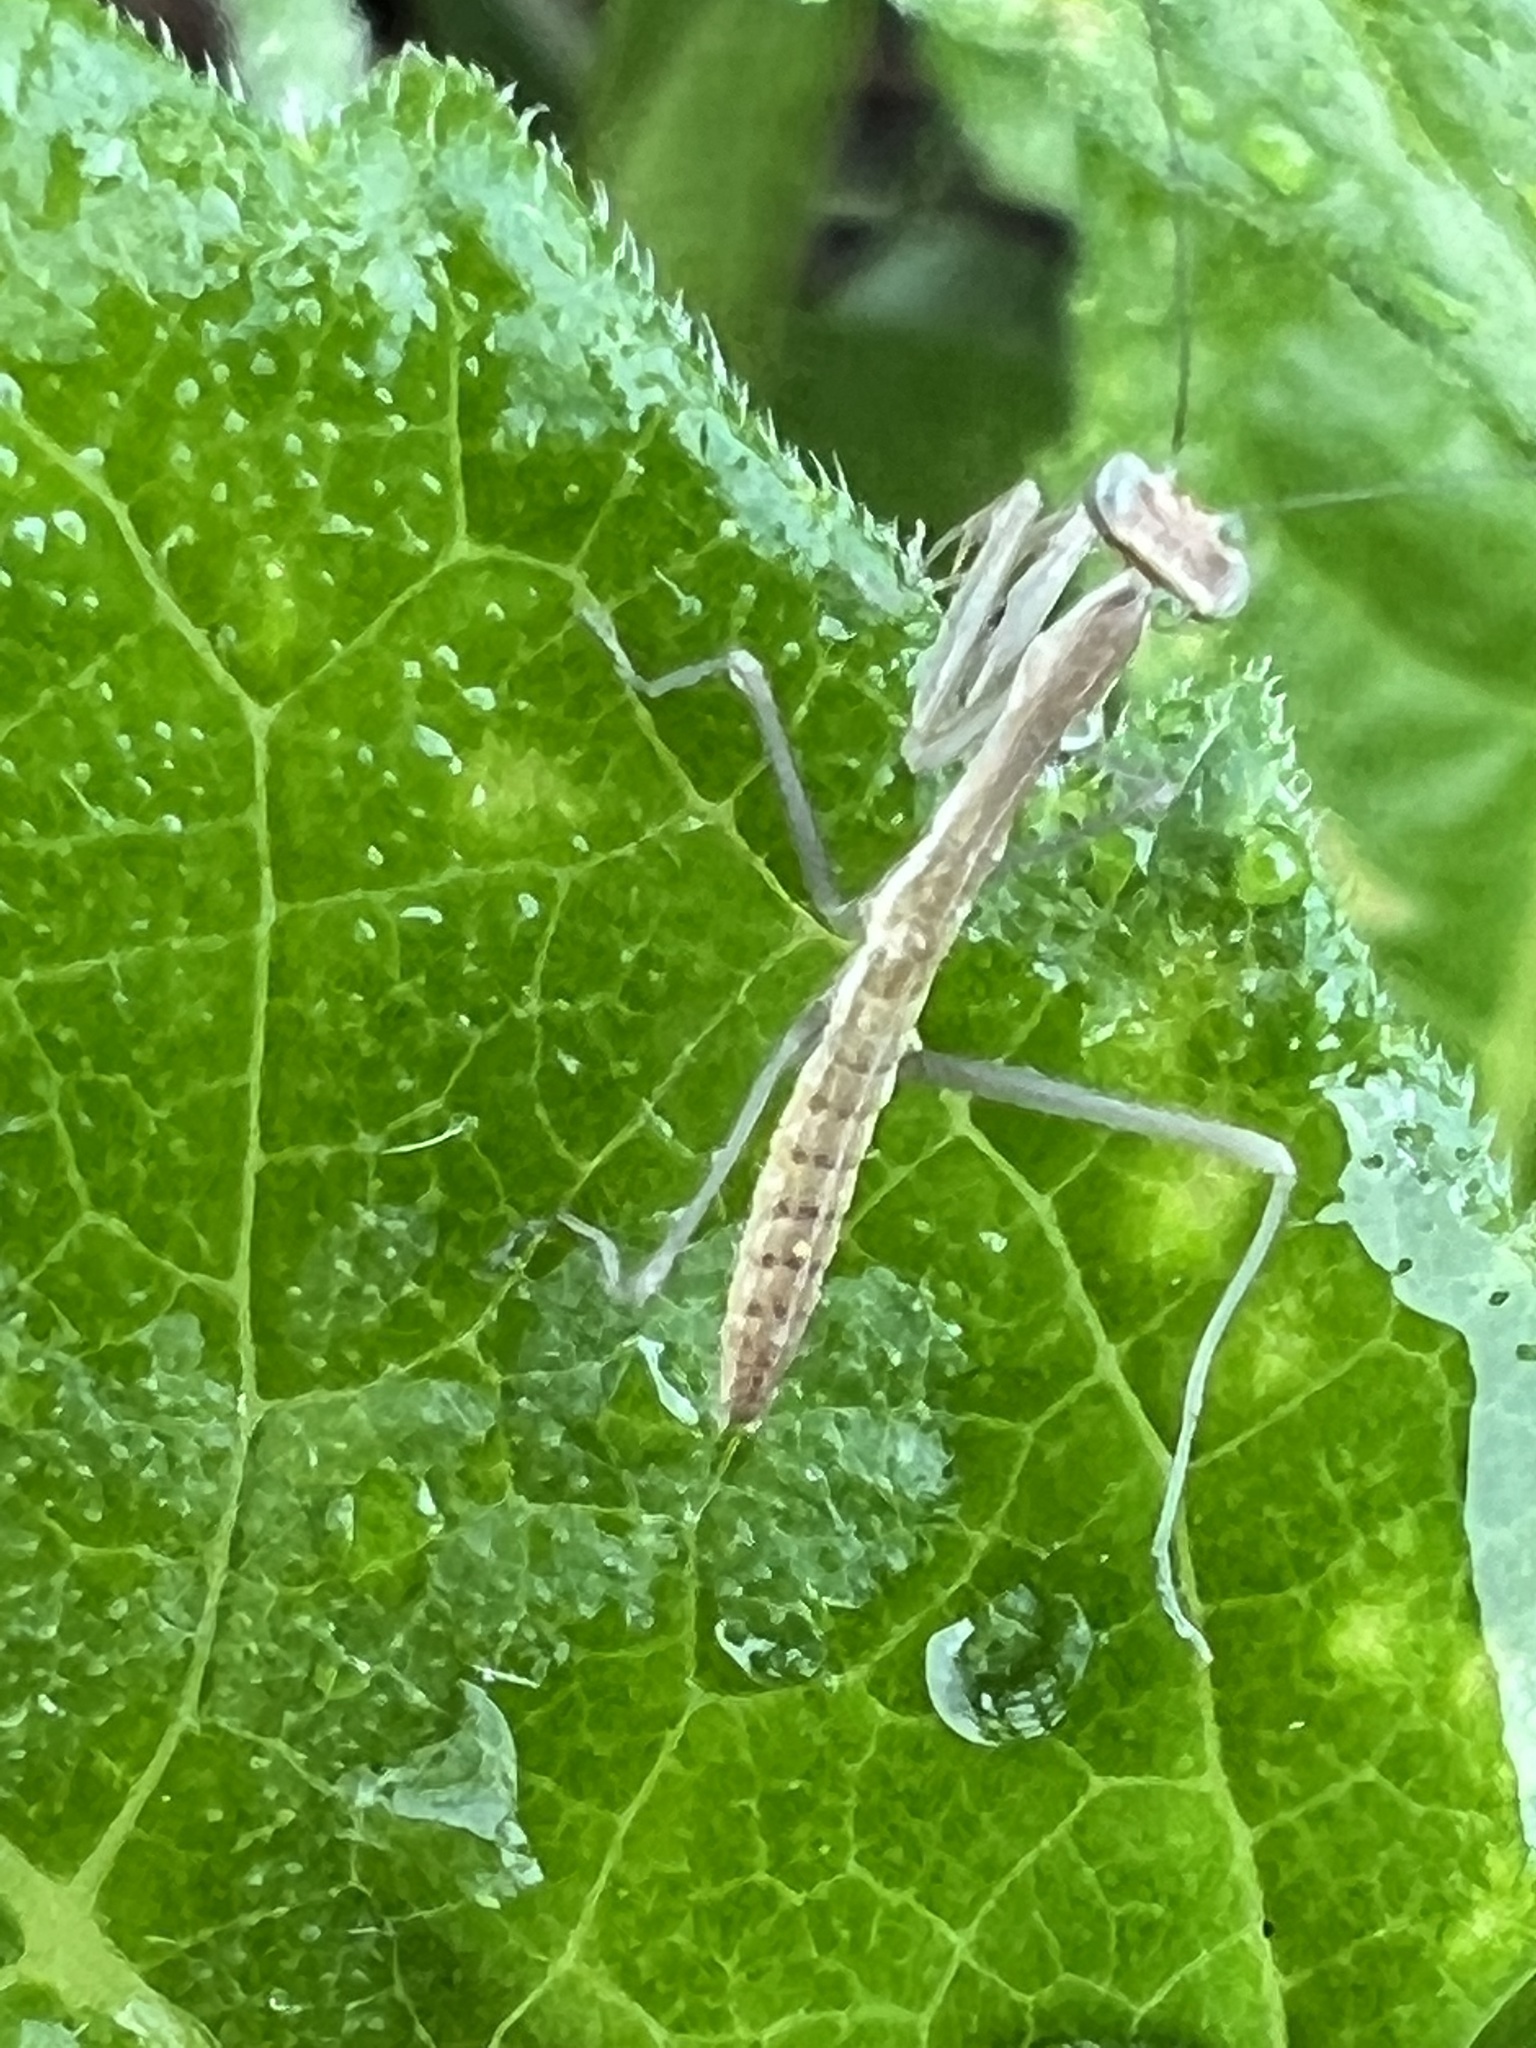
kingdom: Animalia
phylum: Arthropoda
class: Insecta
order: Mantodea
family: Mantidae
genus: Tenodera
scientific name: Tenodera sinensis
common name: Chinese mantis
